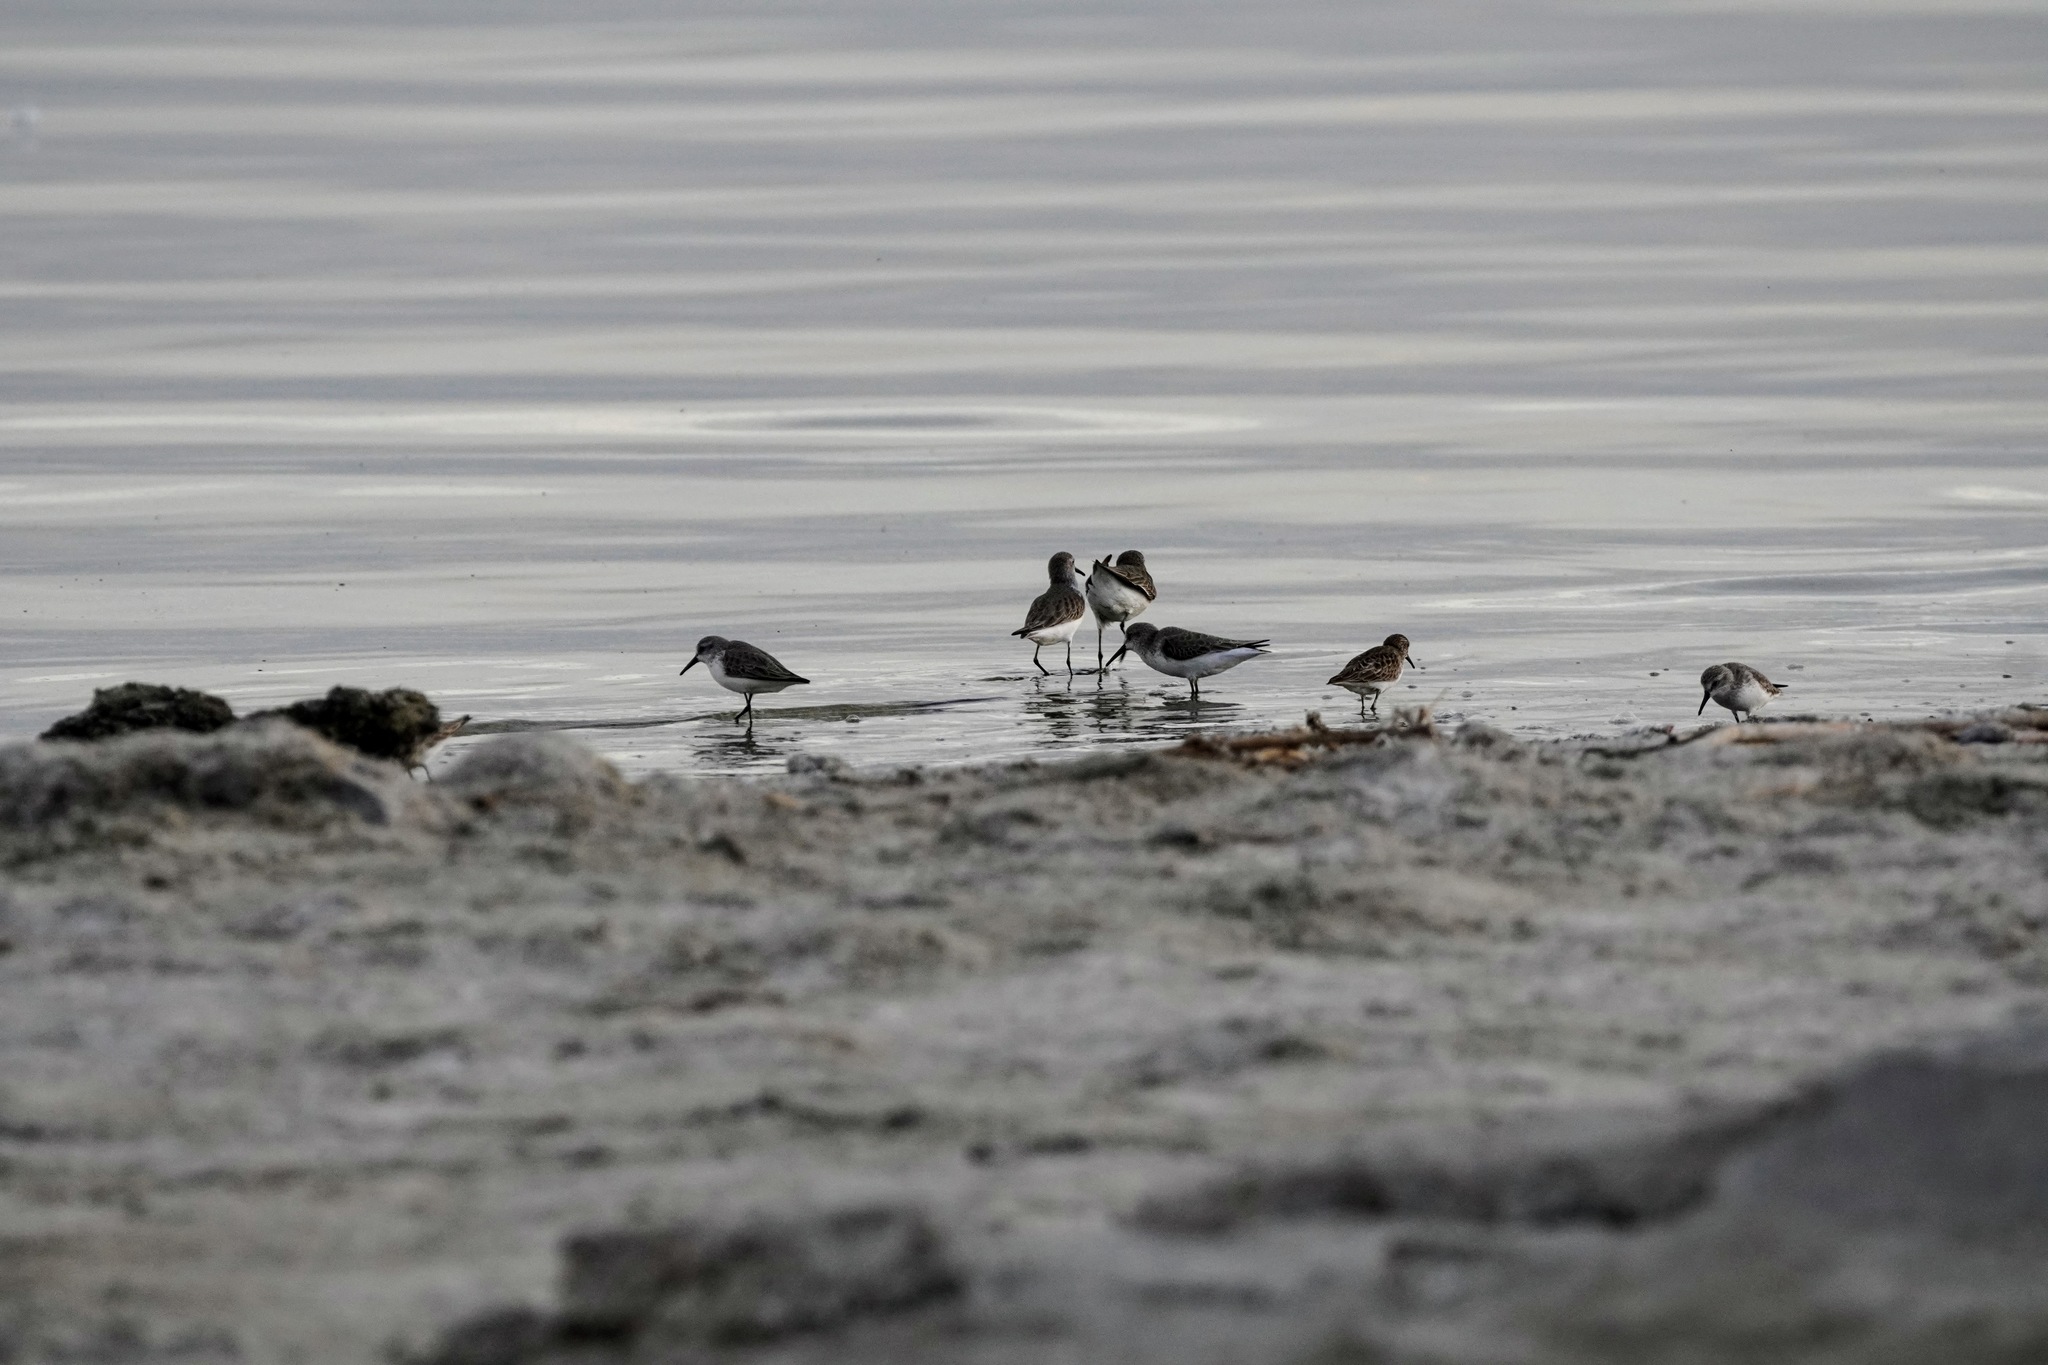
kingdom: Animalia
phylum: Chordata
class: Aves
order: Charadriiformes
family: Scolopacidae
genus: Calidris
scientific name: Calidris mauri
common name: Western sandpiper
